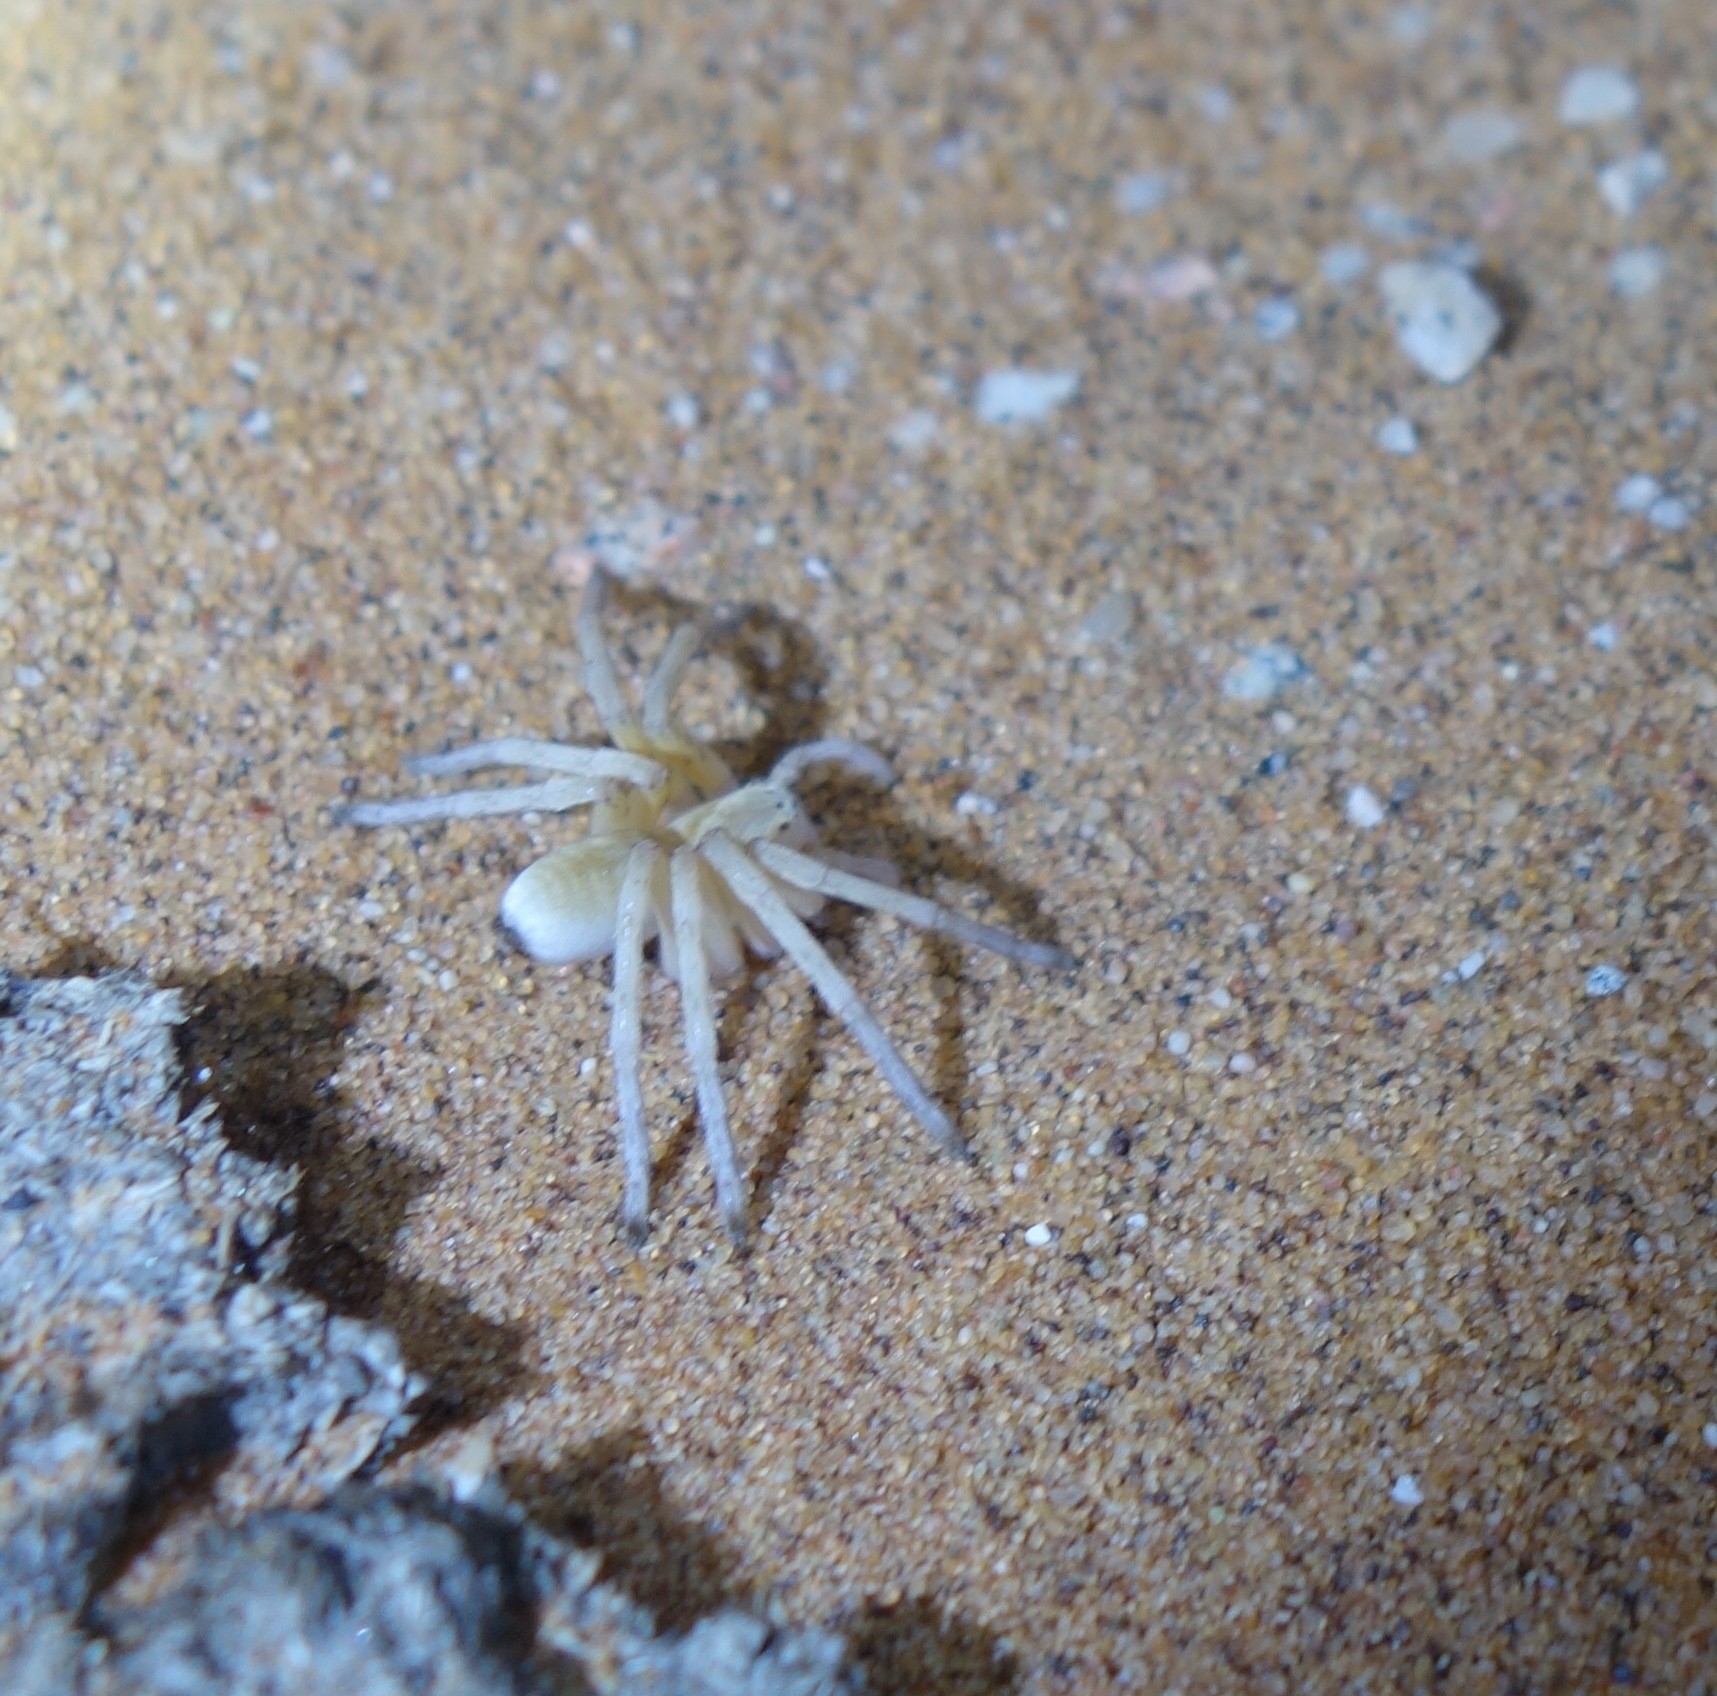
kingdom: Animalia
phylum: Arthropoda
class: Arachnida
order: Araneae
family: Sparassidae
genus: Leucorchestris
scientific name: Leucorchestris arenicola
